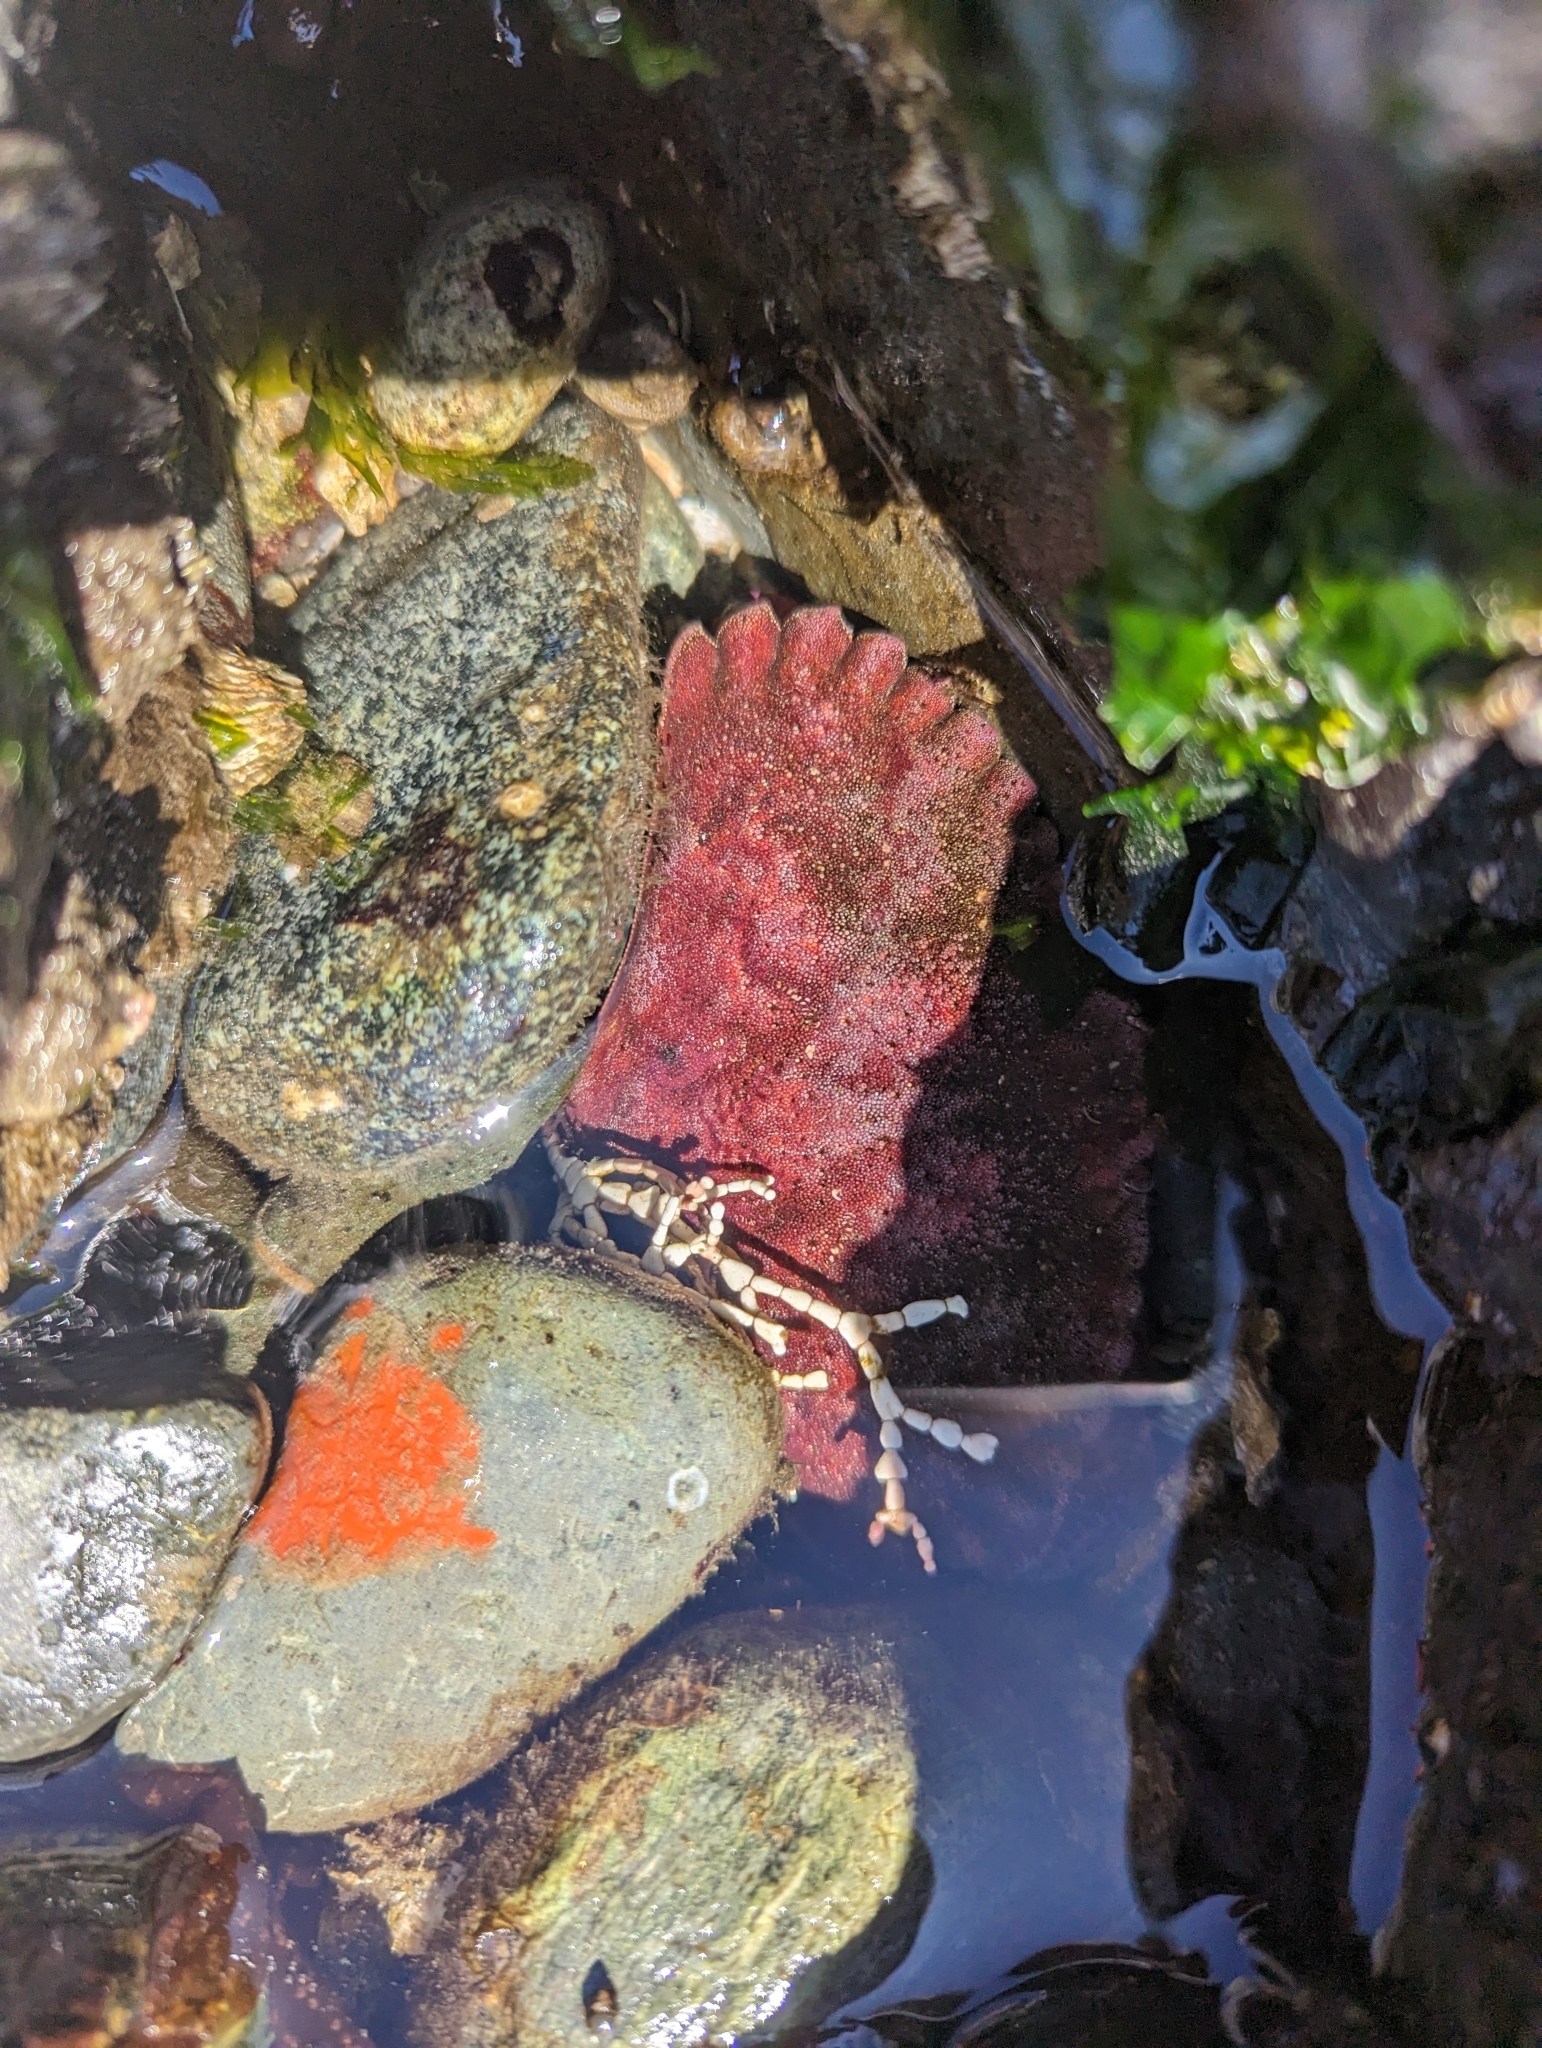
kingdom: Animalia
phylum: Arthropoda
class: Malacostraca
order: Decapoda
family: Cancridae
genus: Cancer
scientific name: Cancer productus
